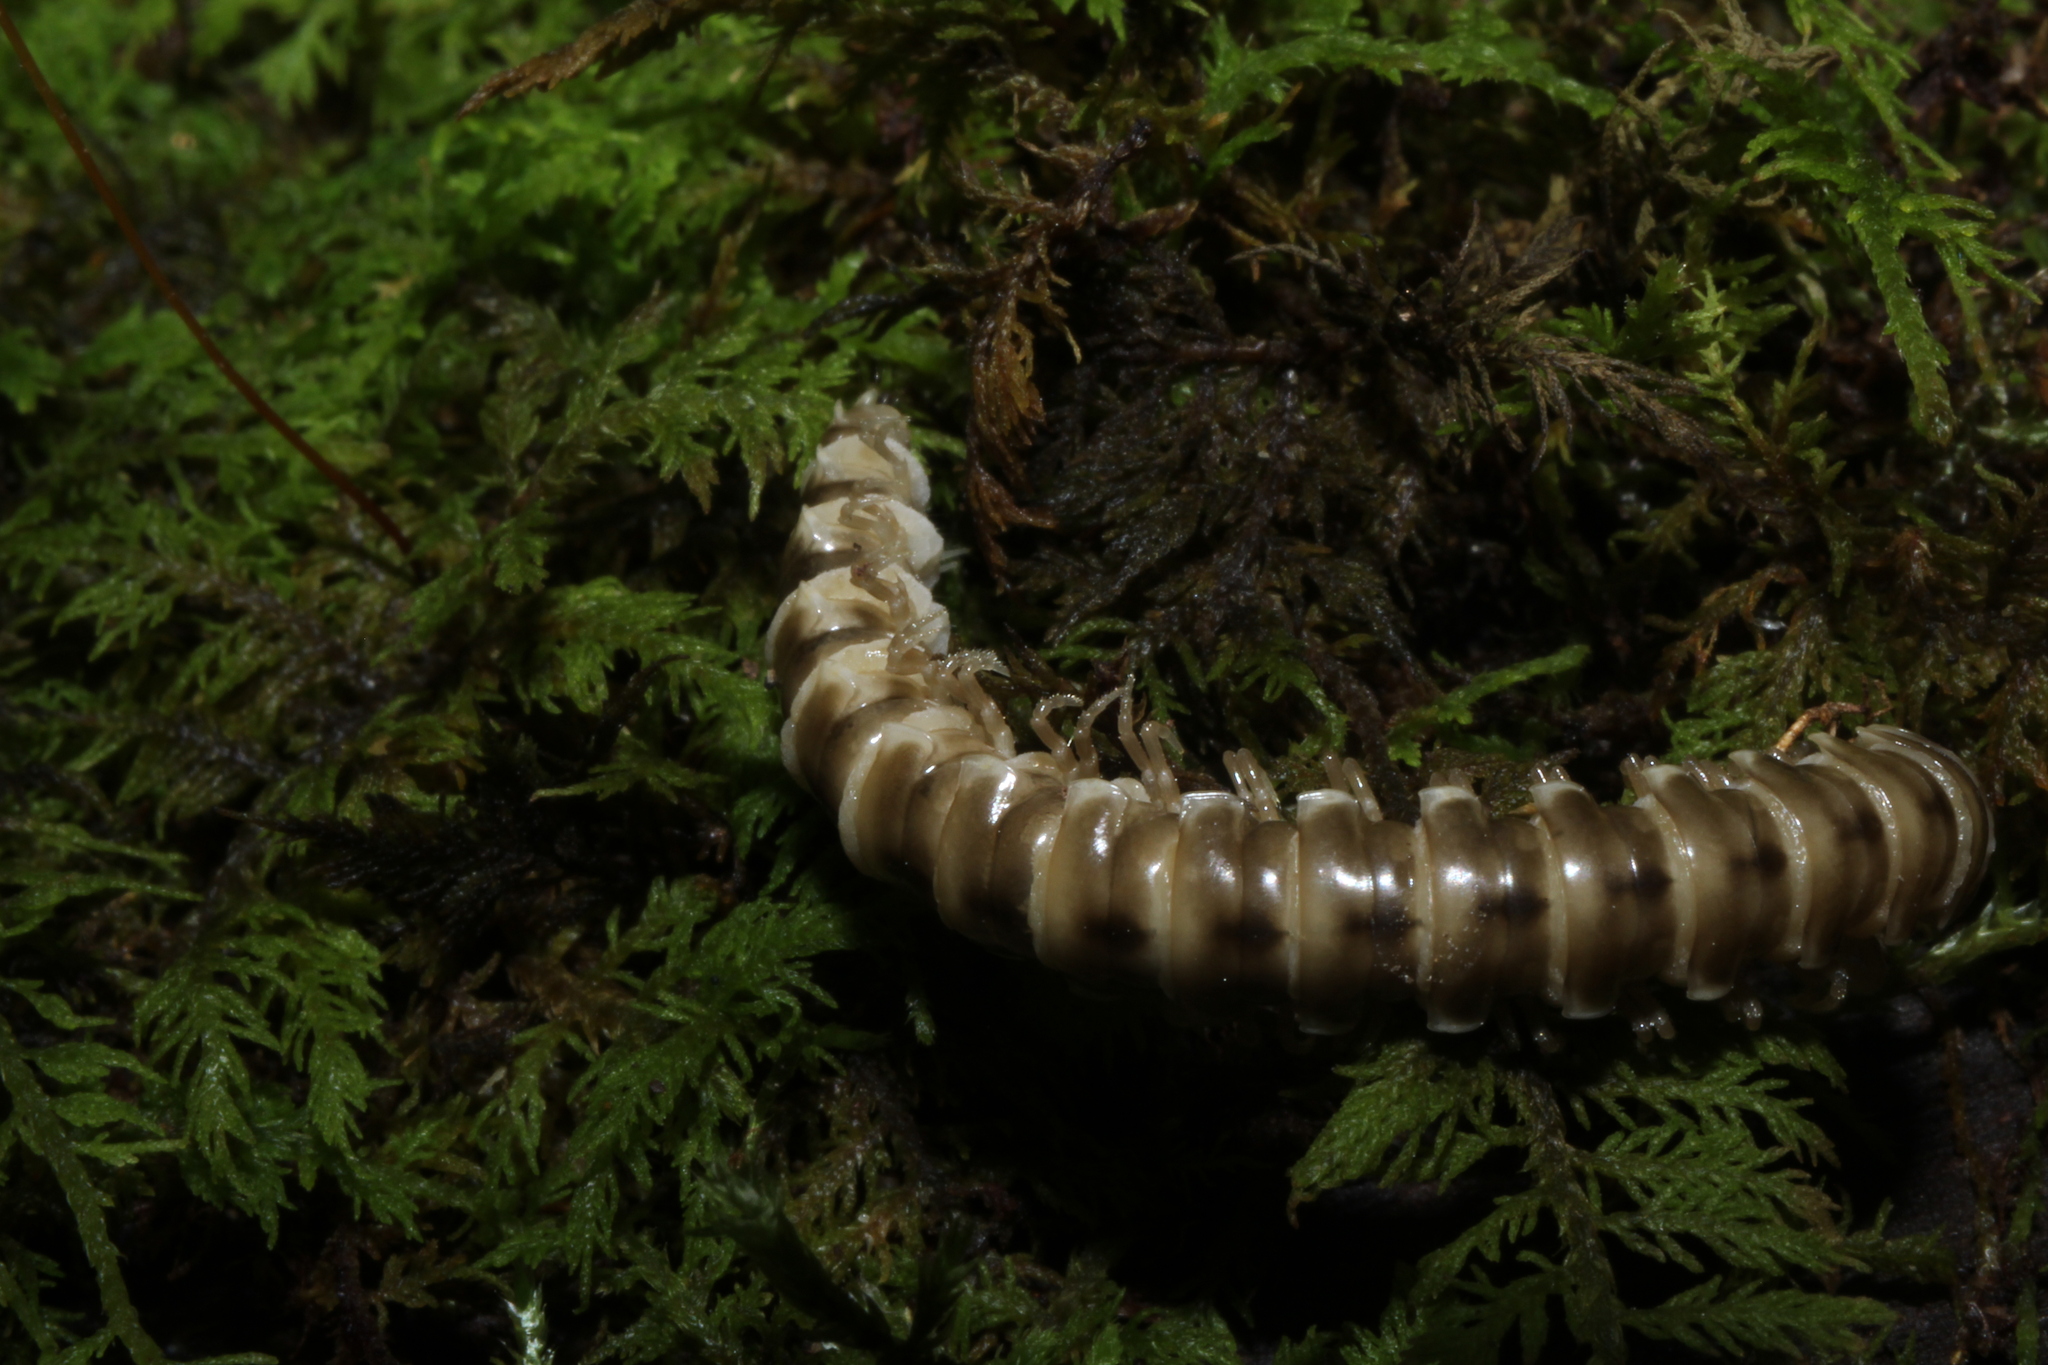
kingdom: Fungi
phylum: Entomophthoromycota
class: Entomophthoromycetes
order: Entomophthorales
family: Entomophthoraceae
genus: Arthrophaga
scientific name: Arthrophaga myriapodina
